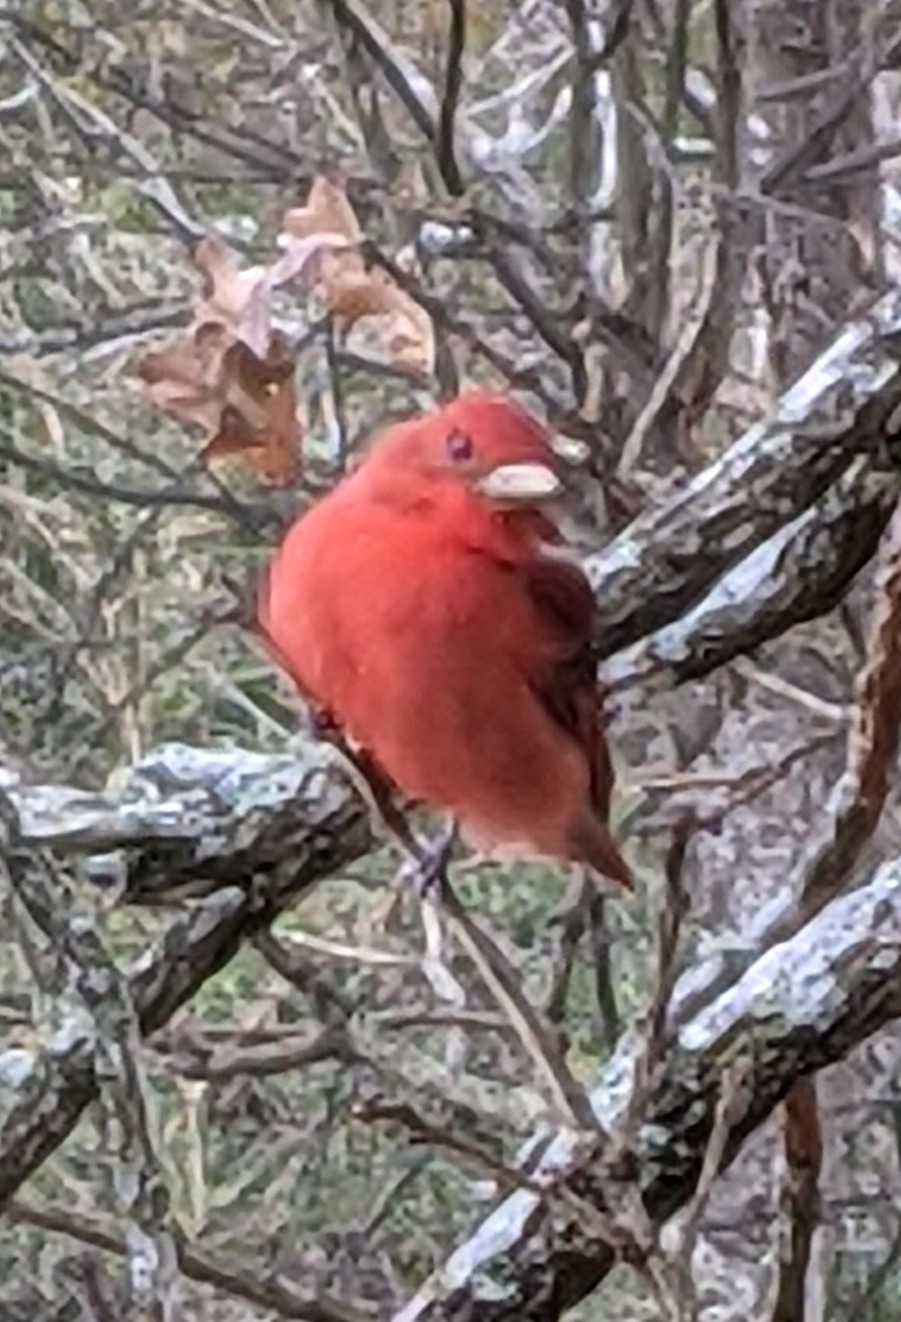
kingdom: Animalia
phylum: Chordata
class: Aves
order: Passeriformes
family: Cardinalidae
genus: Piranga
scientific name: Piranga rubra
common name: Summer tanager
